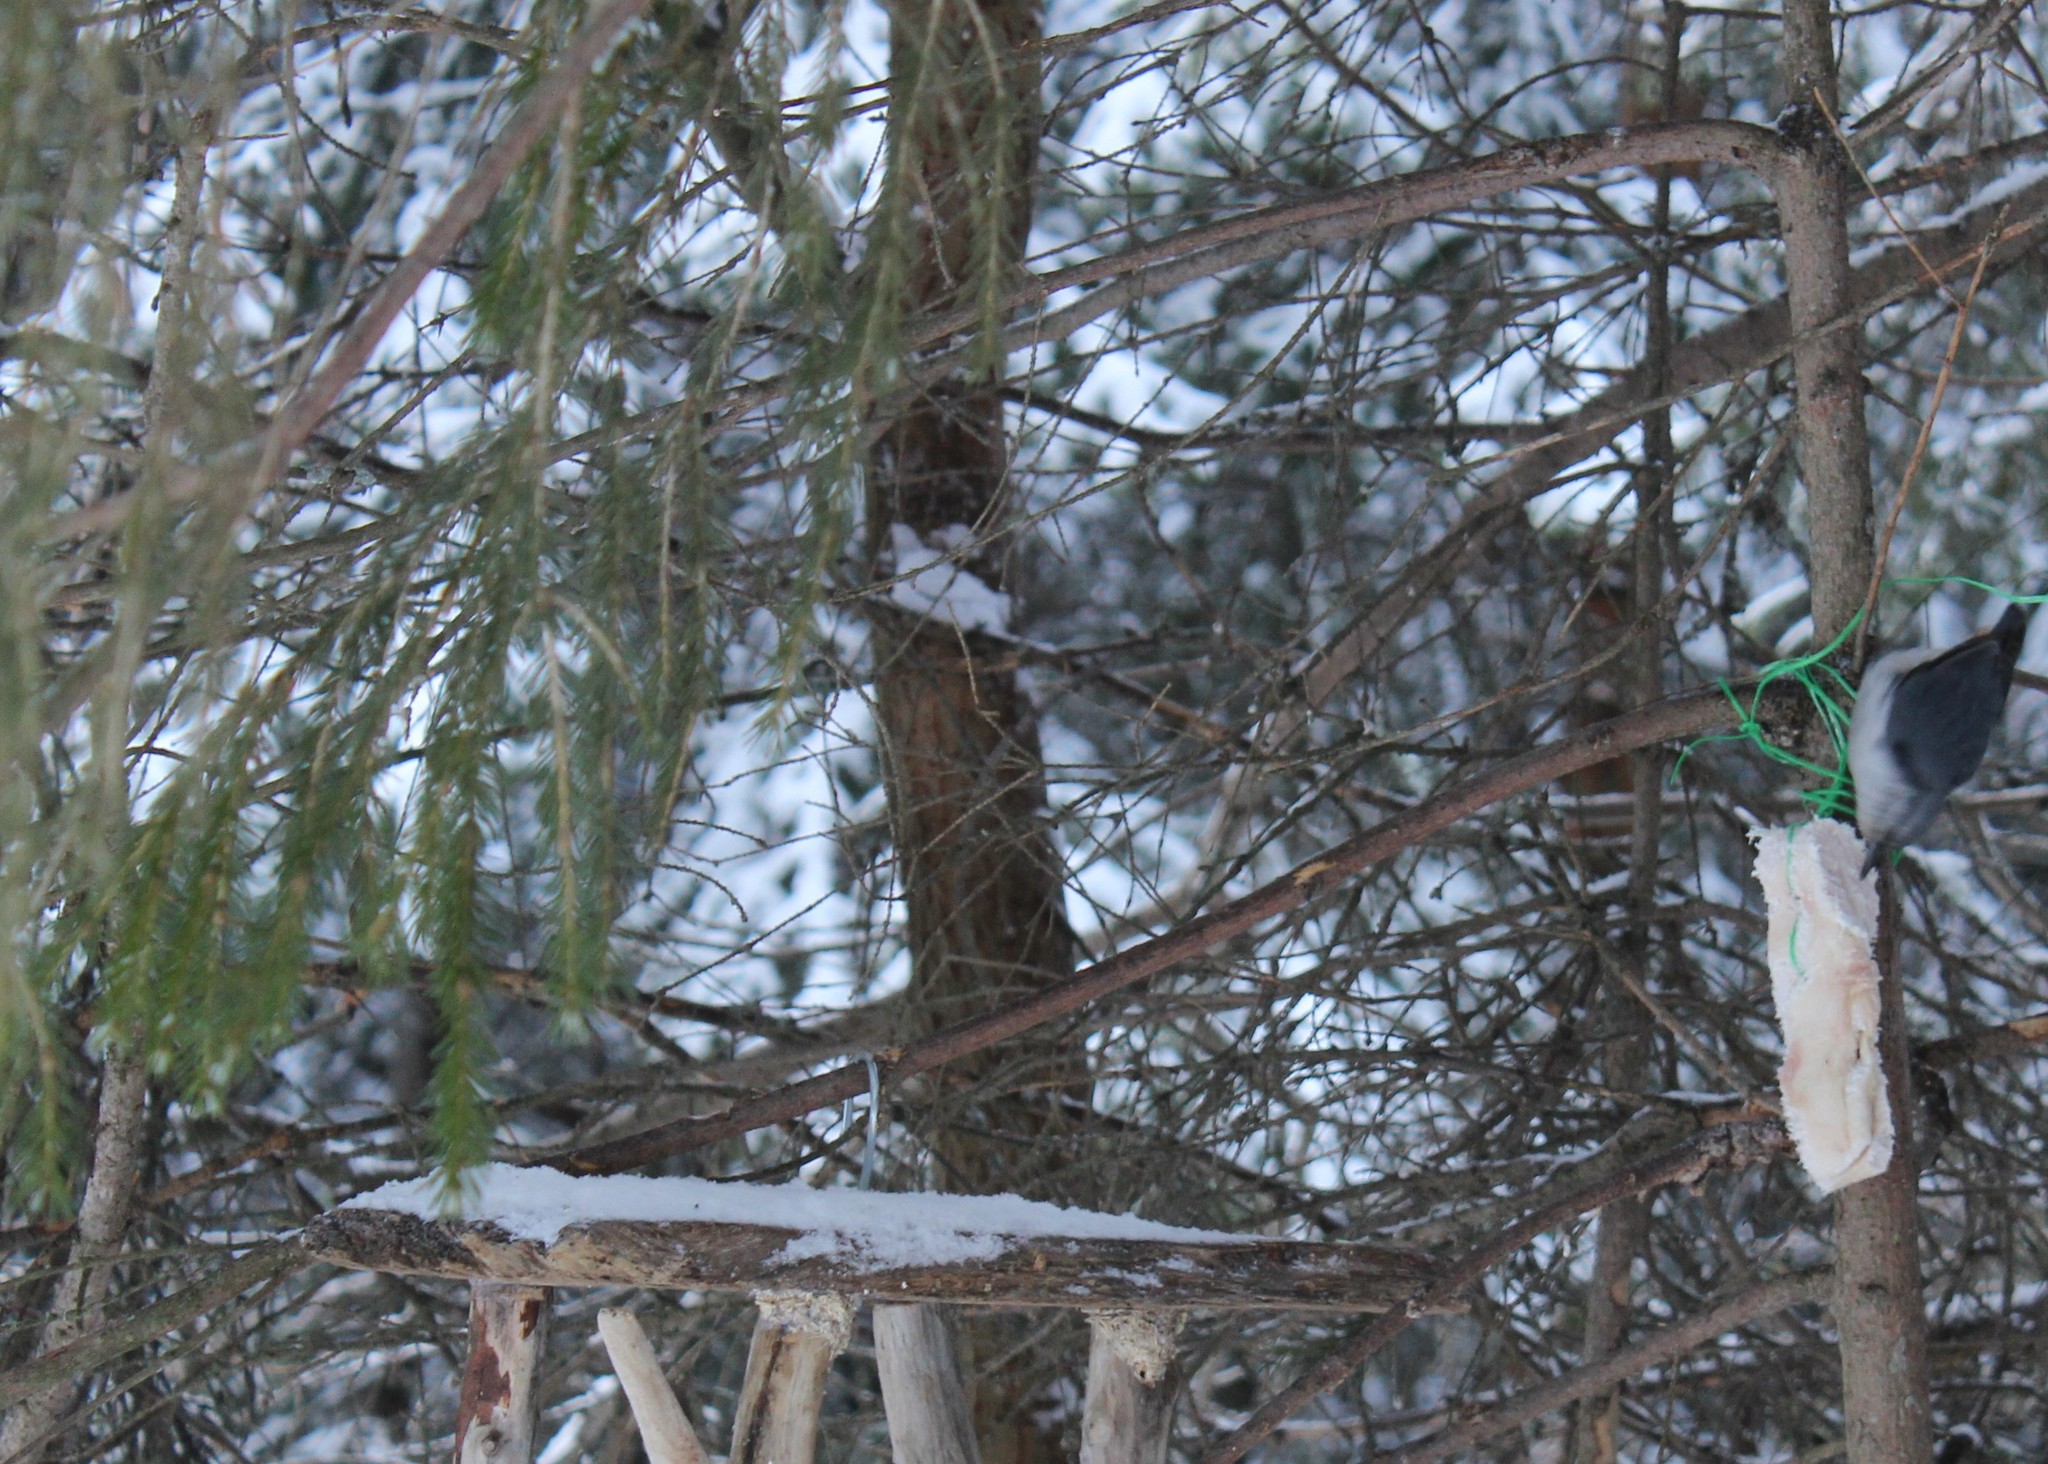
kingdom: Animalia
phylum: Chordata
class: Aves
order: Passeriformes
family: Sittidae
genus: Sitta
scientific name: Sitta europaea
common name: Eurasian nuthatch
